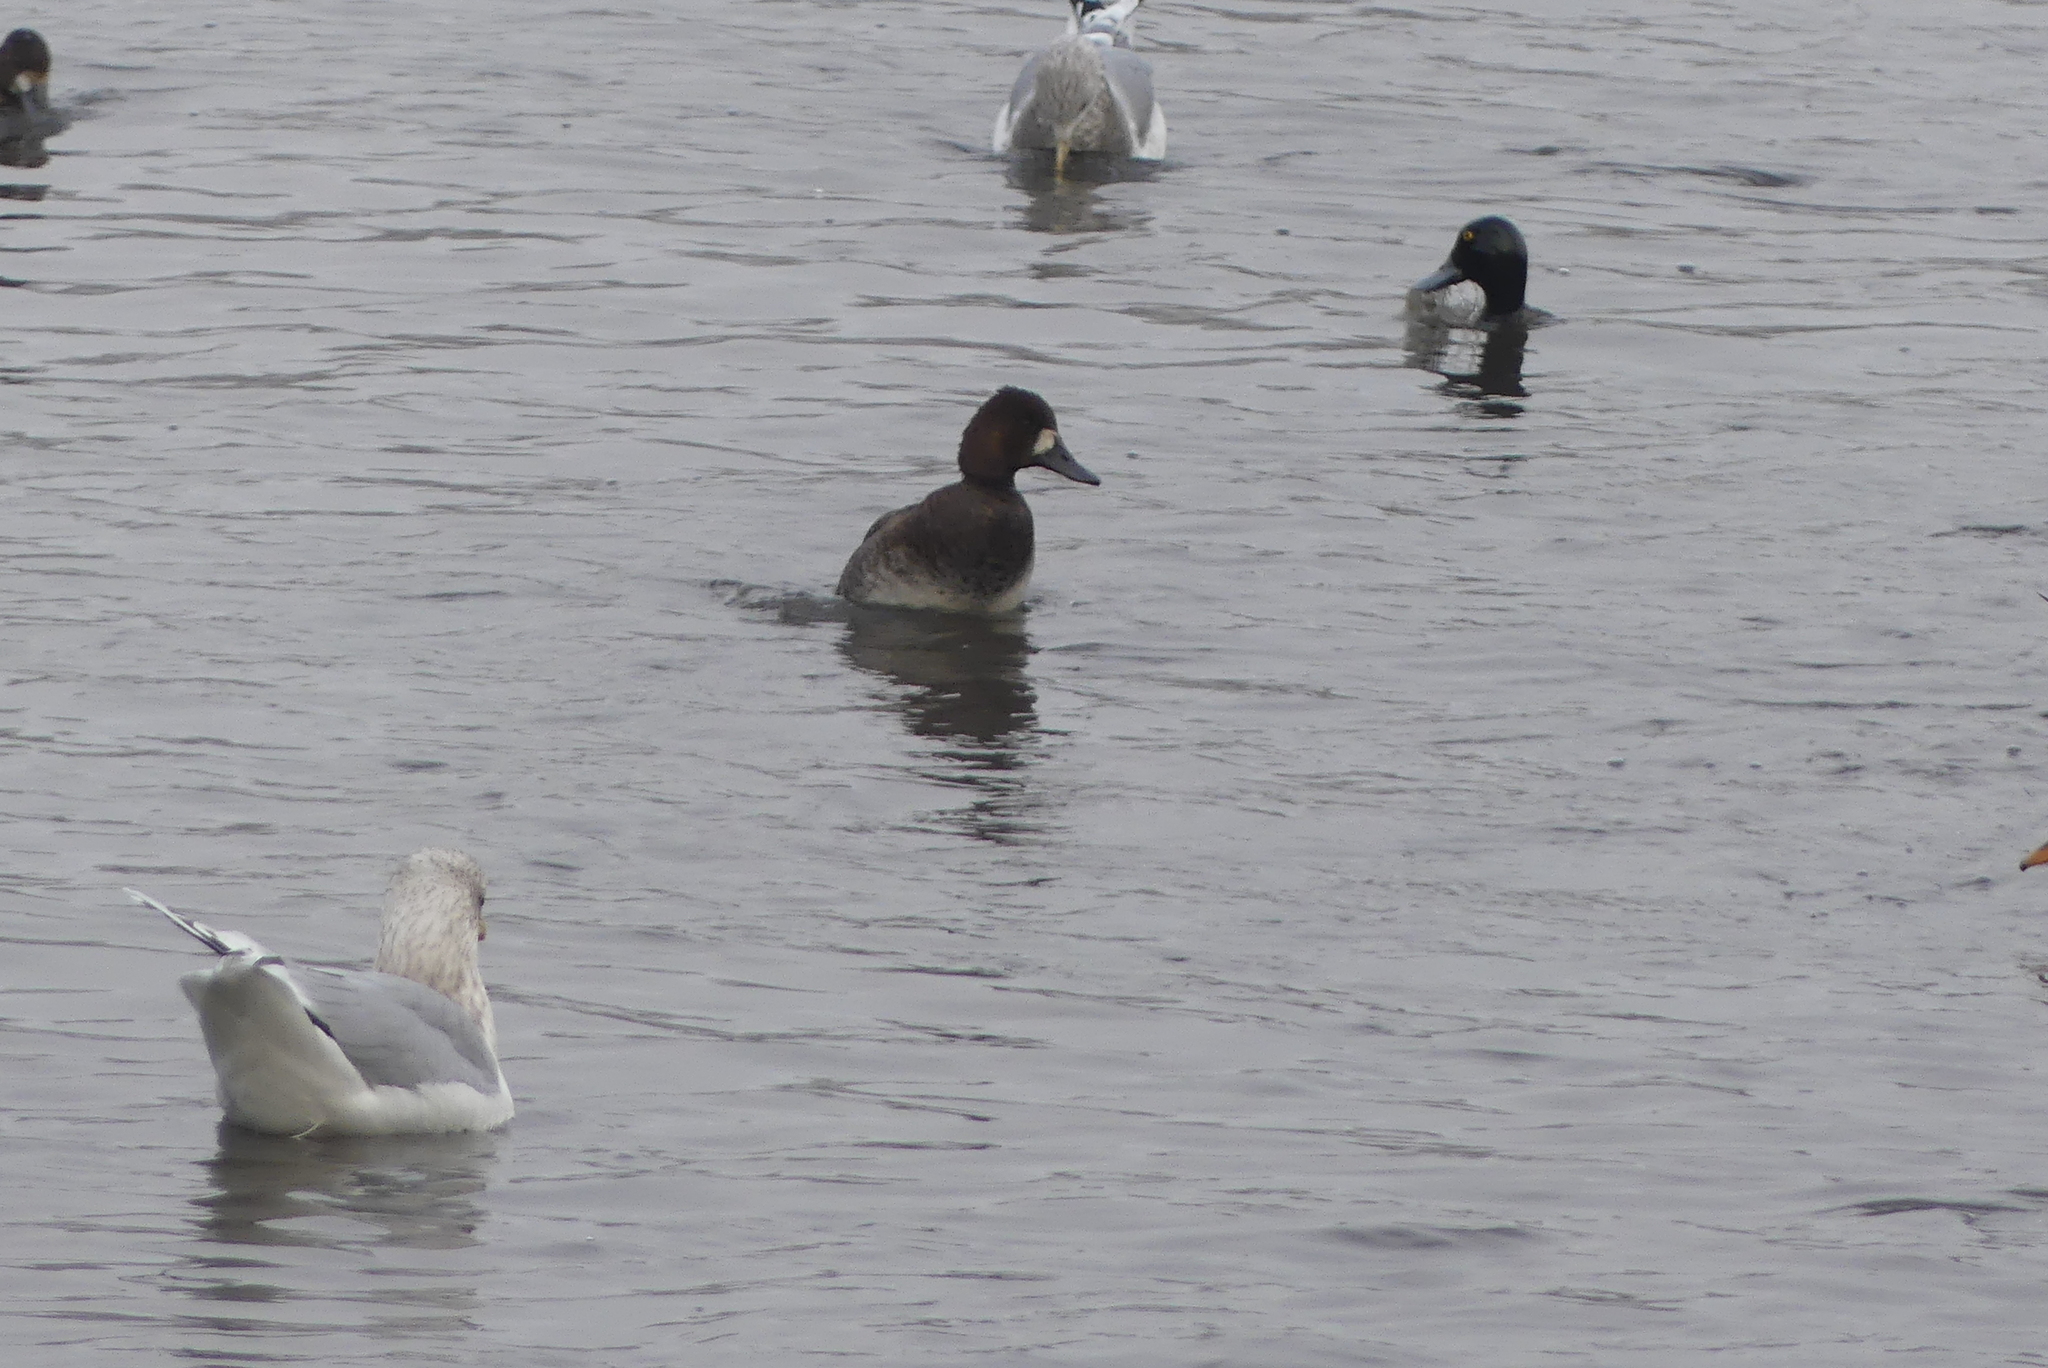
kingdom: Animalia
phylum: Chordata
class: Aves
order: Anseriformes
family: Anatidae
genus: Aythya
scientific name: Aythya affinis
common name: Lesser scaup
